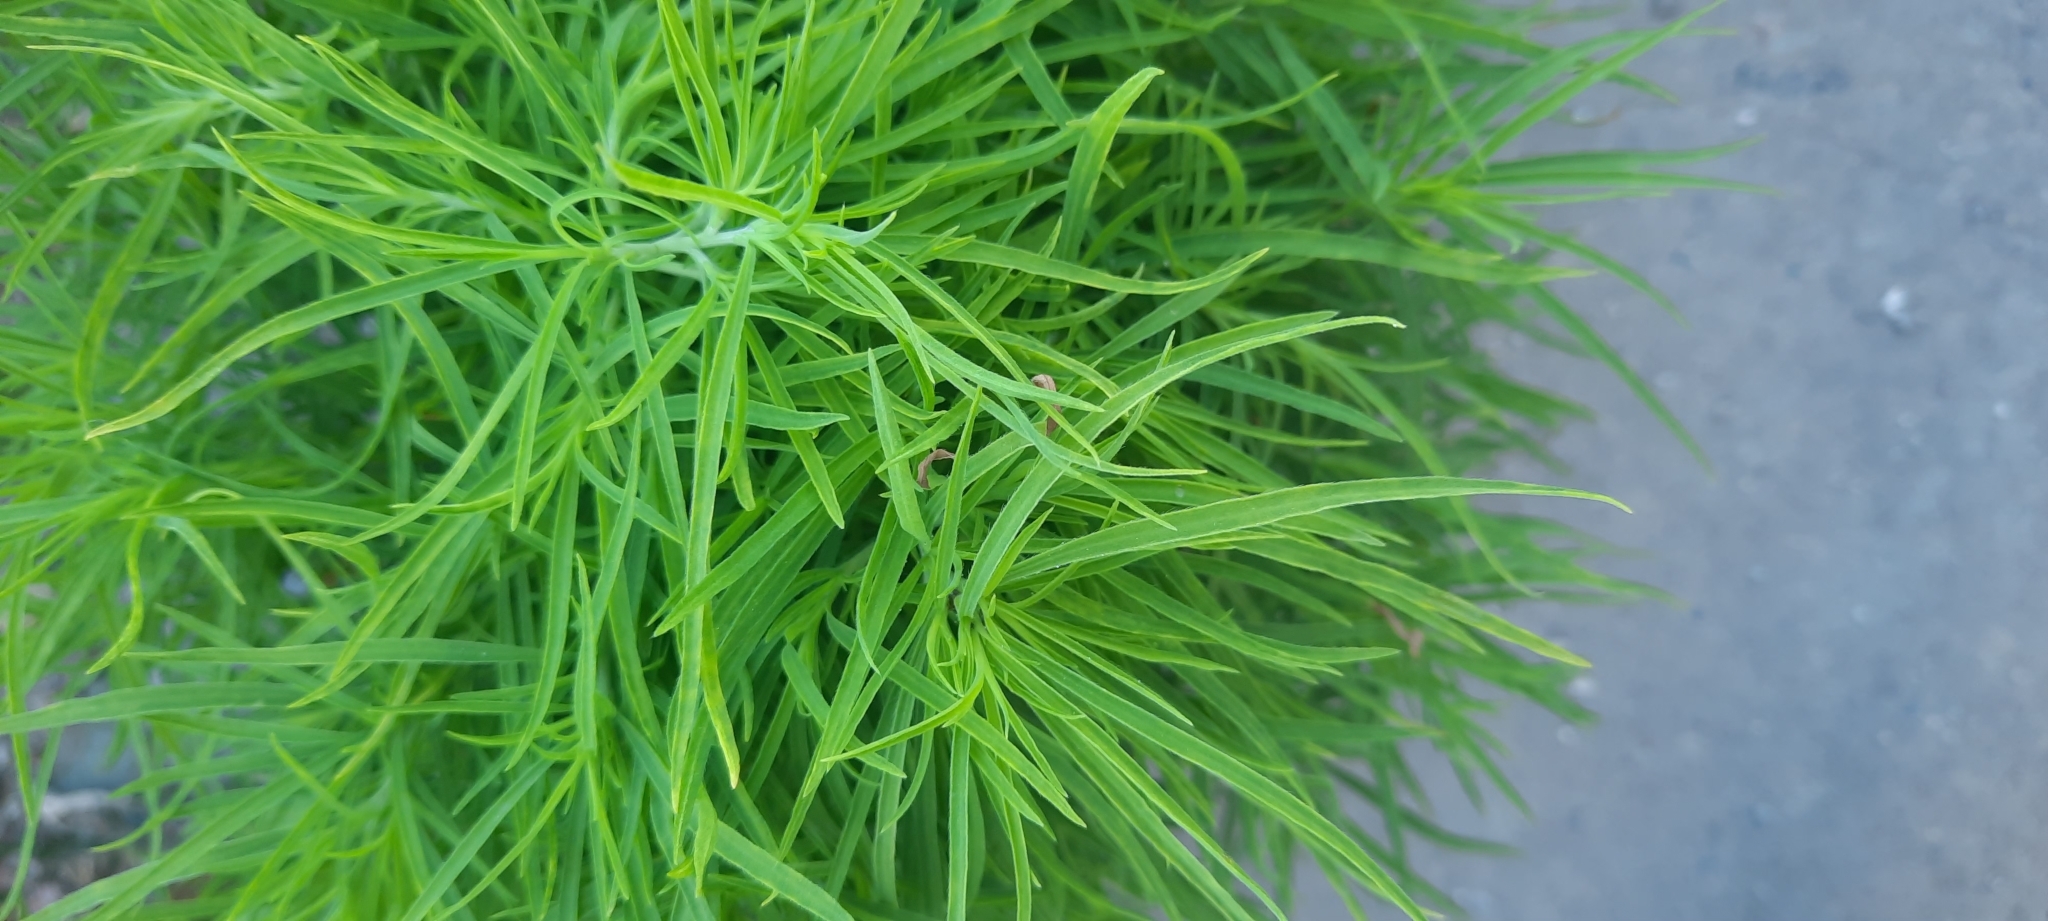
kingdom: Plantae
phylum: Tracheophyta
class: Magnoliopsida
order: Caryophyllales
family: Amaranthaceae
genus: Bassia
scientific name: Bassia scoparia
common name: Belvedere
